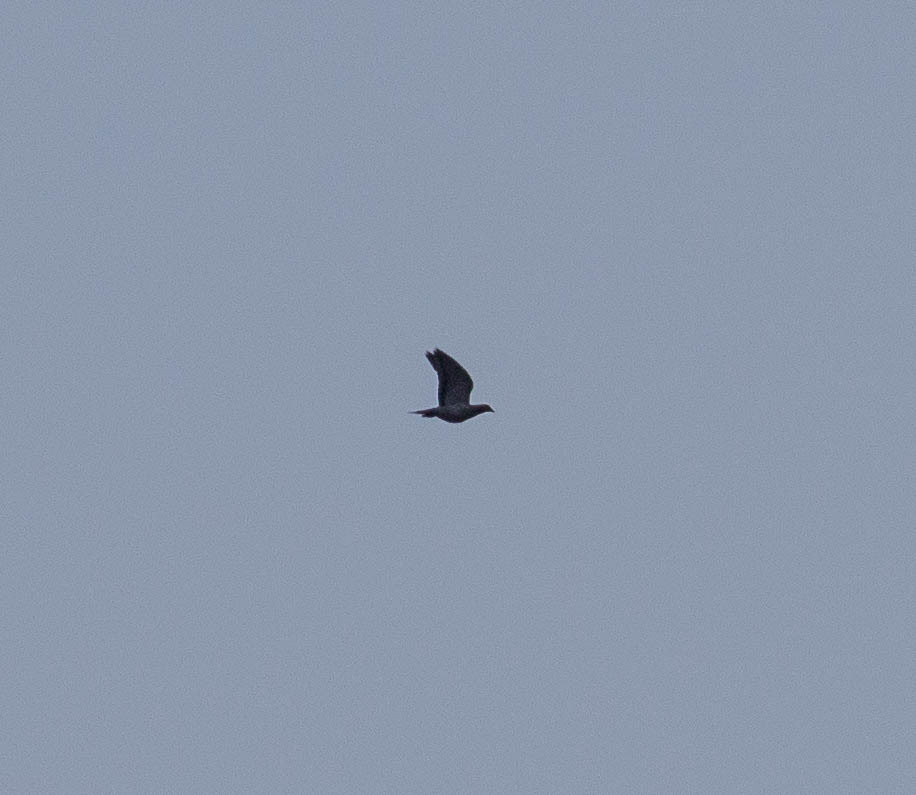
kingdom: Animalia
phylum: Chordata
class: Aves
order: Columbiformes
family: Columbidae
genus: Zenaida
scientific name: Zenaida macroura
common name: Mourning dove
